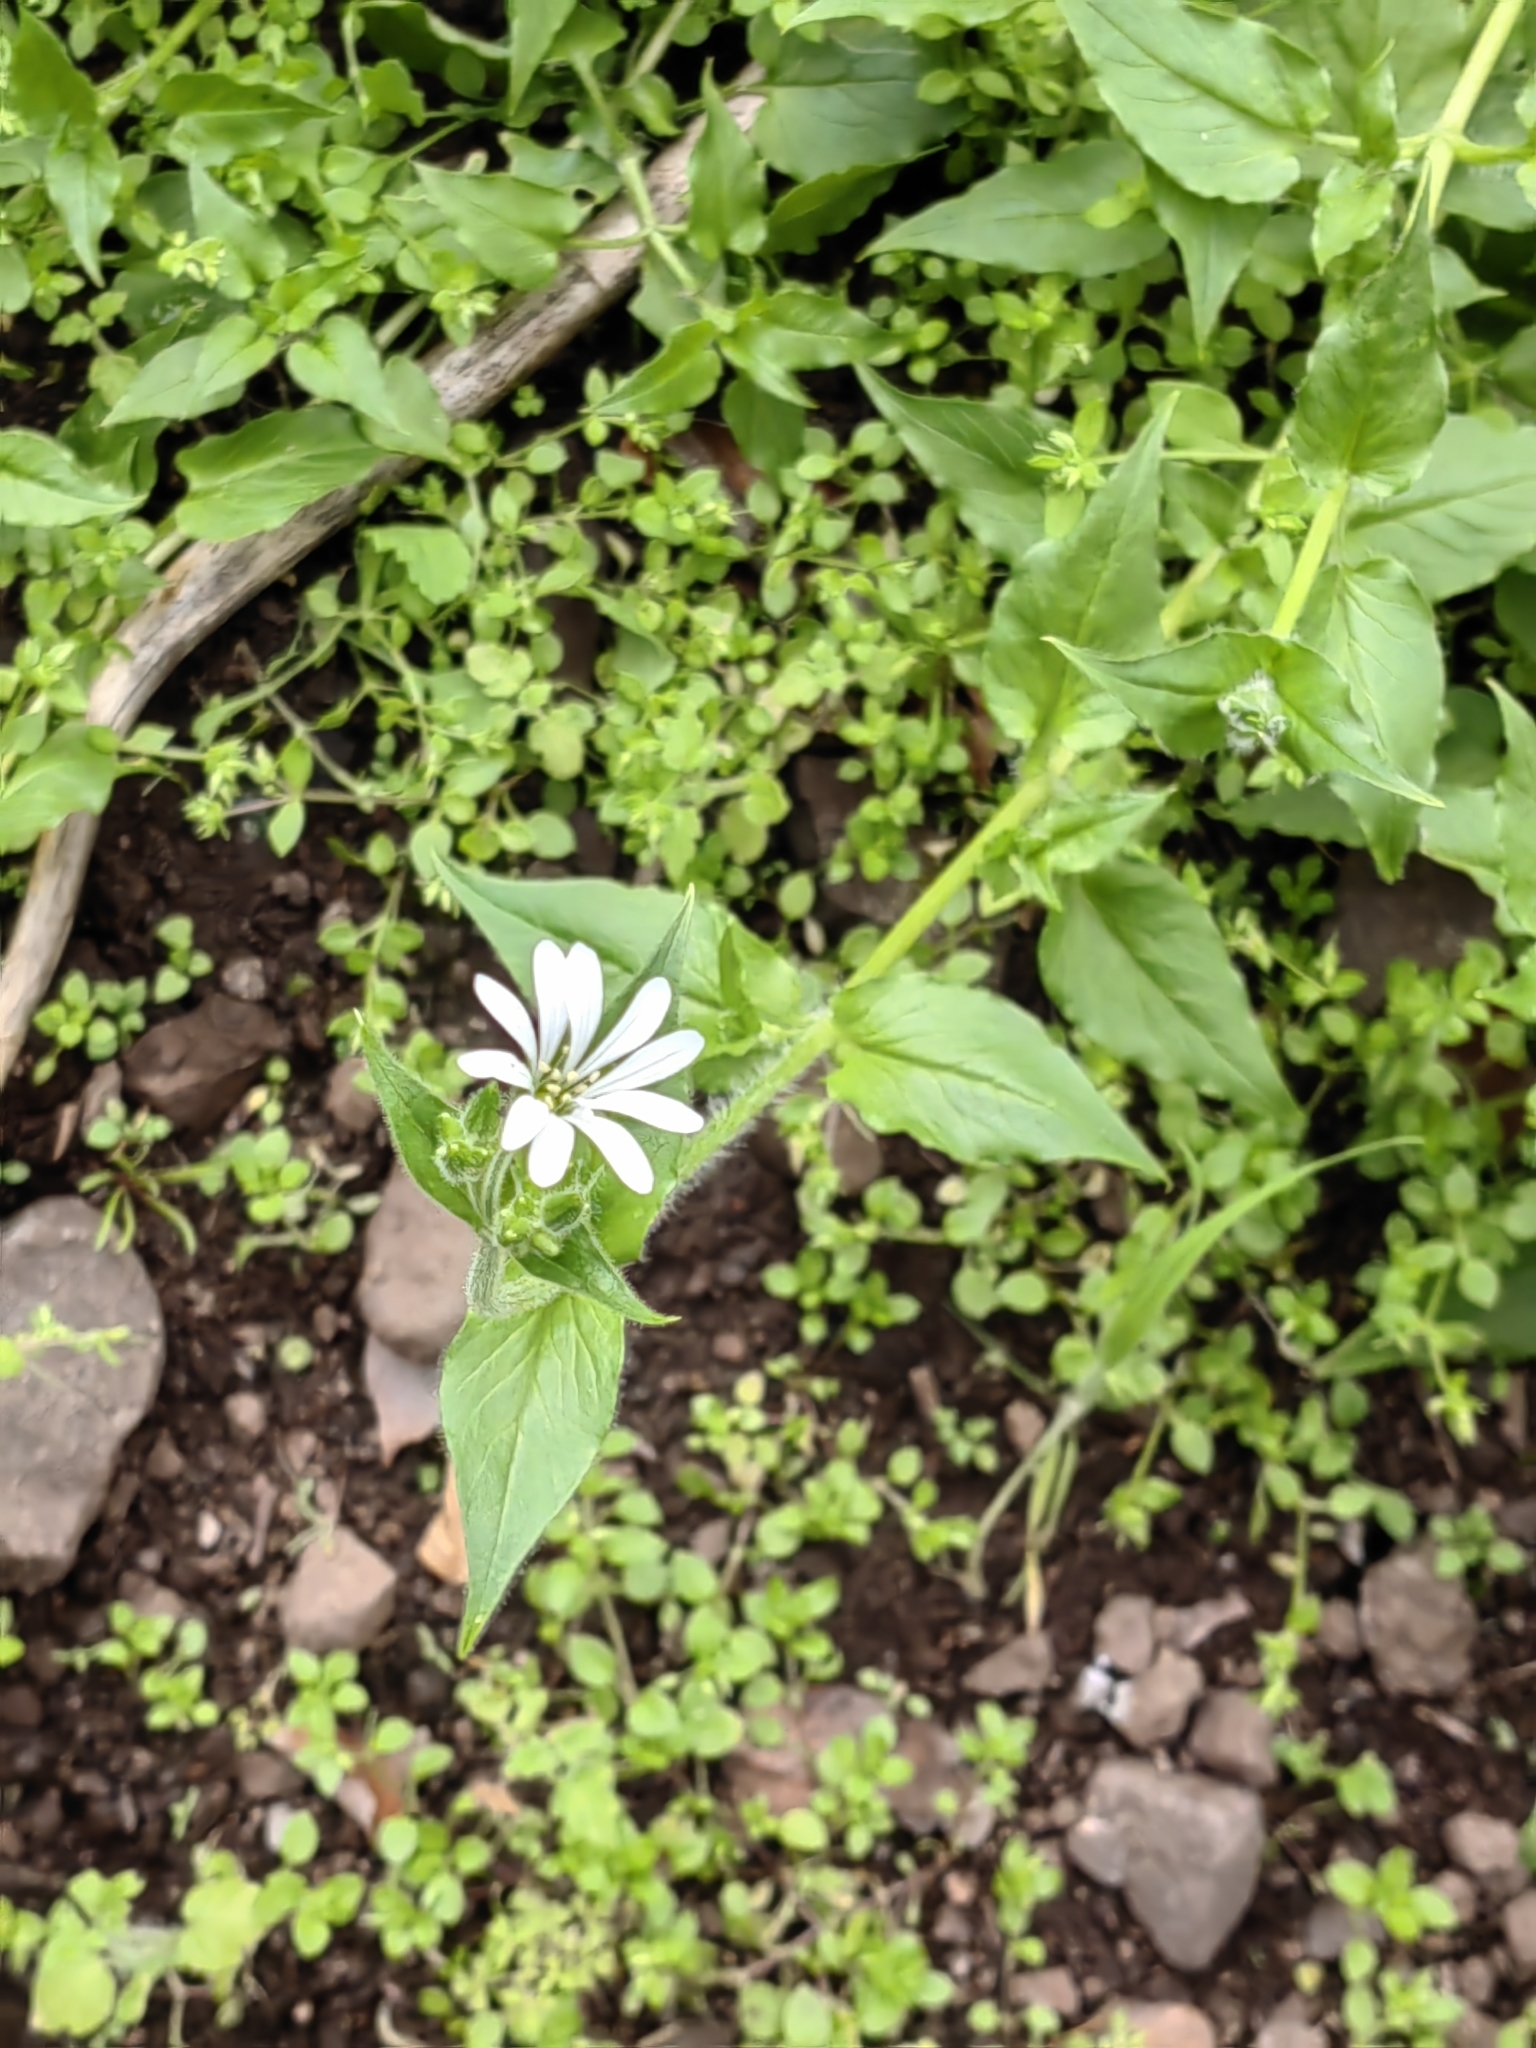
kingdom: Plantae
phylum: Tracheophyta
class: Magnoliopsida
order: Caryophyllales
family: Caryophyllaceae
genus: Stellaria
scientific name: Stellaria chilensis
